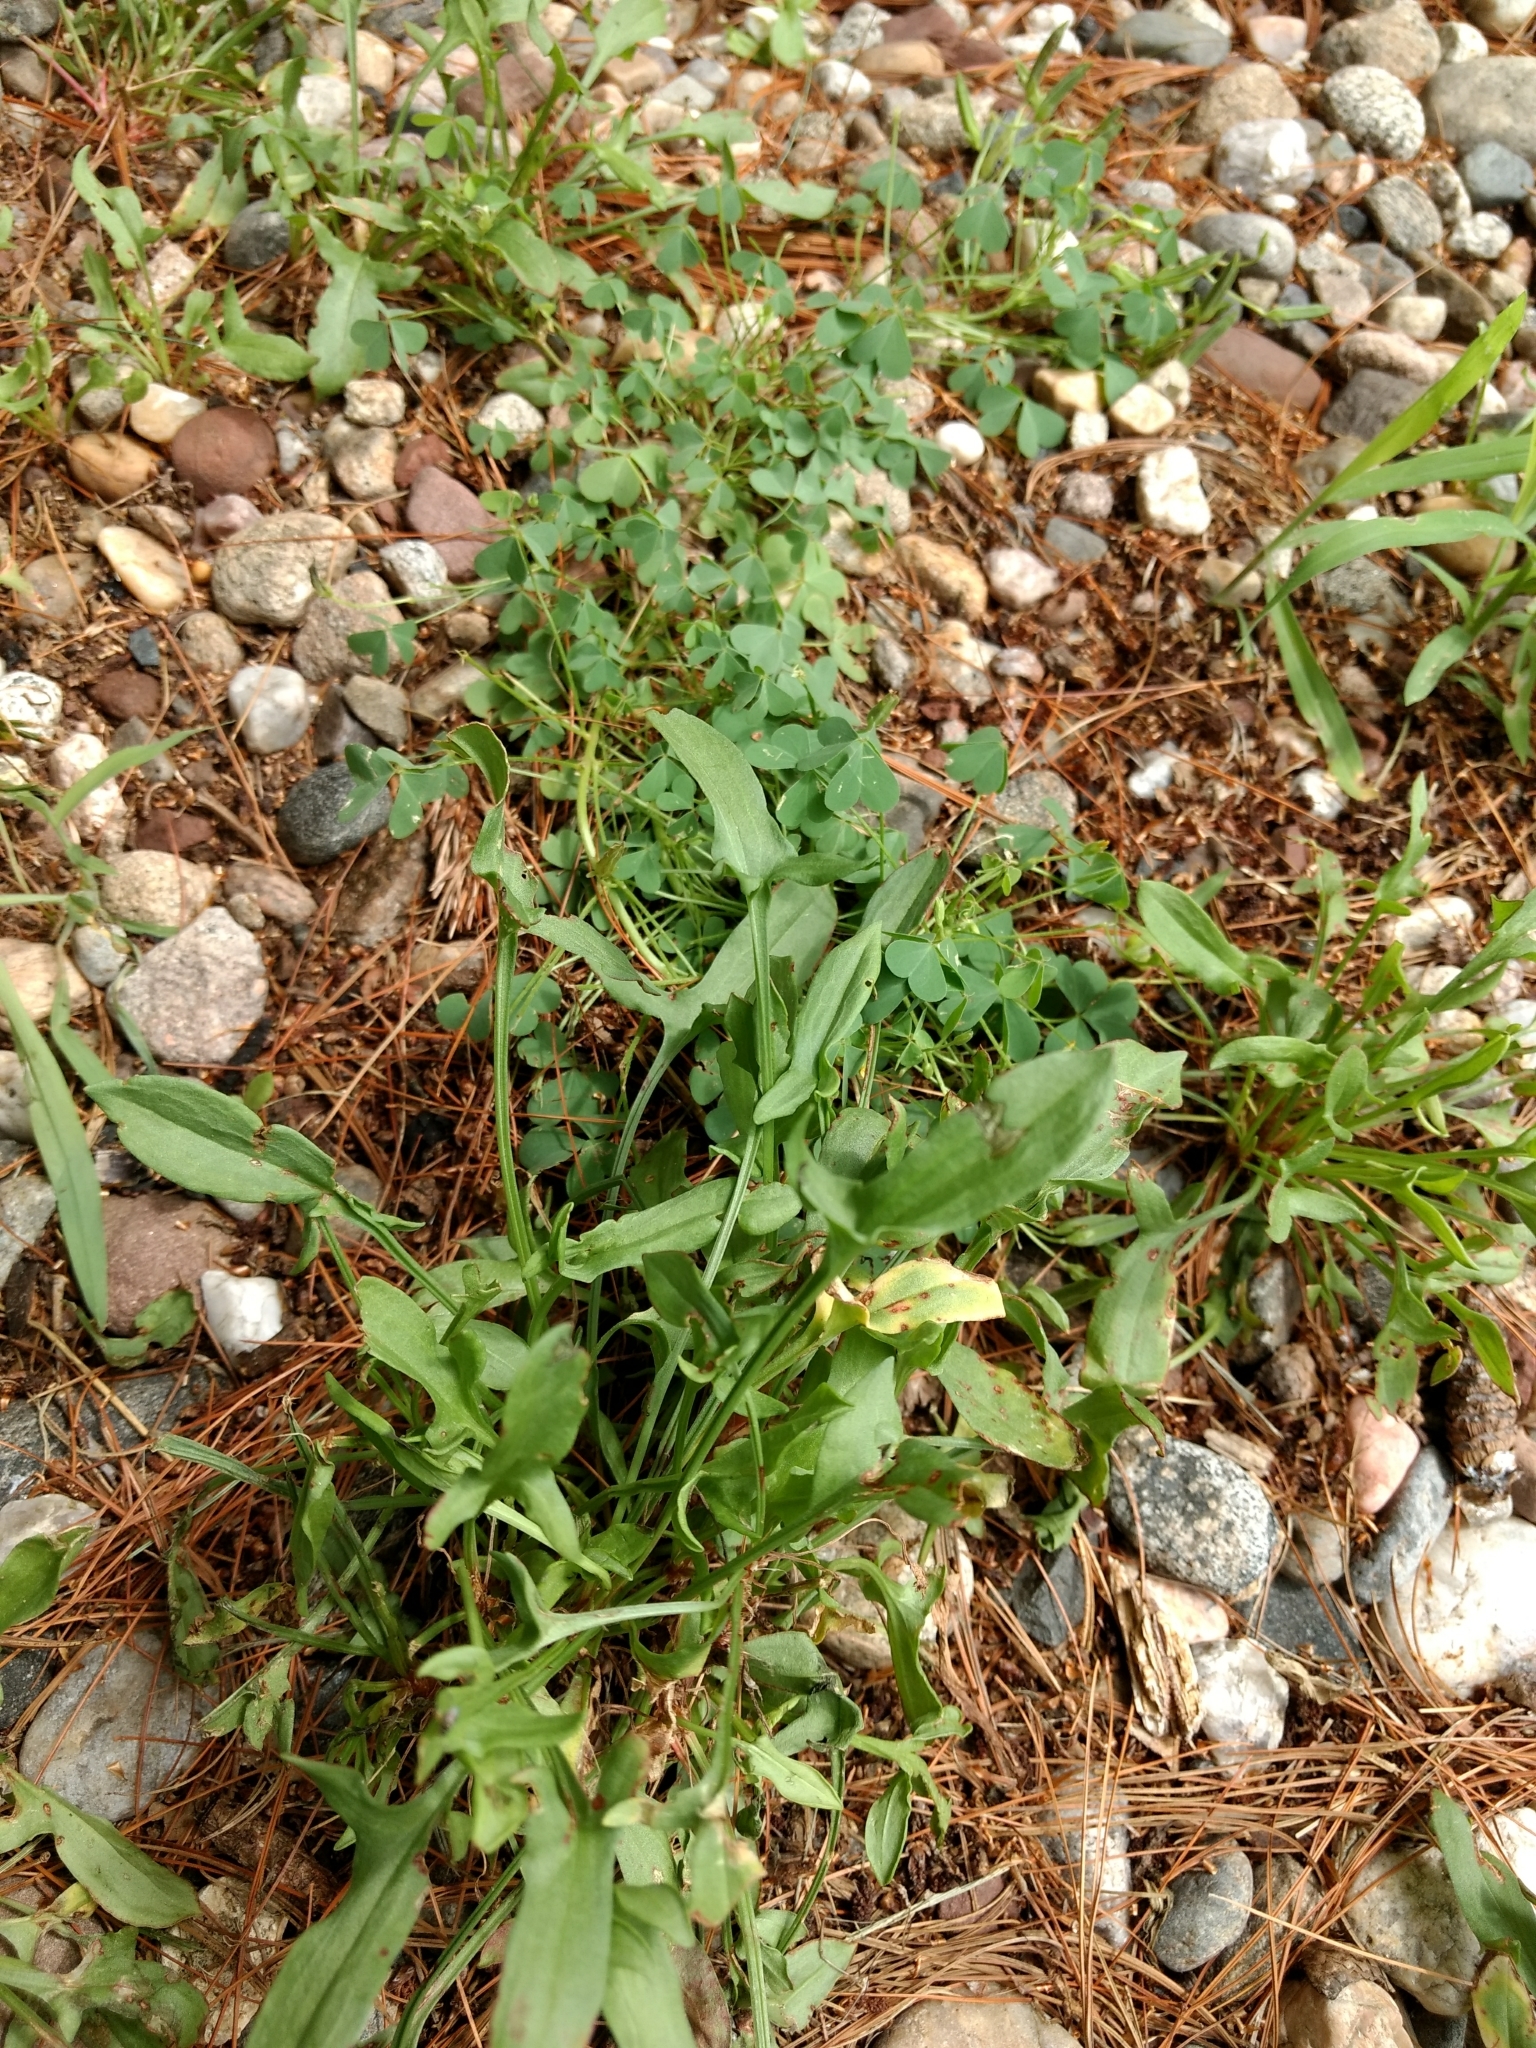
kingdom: Plantae
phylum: Tracheophyta
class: Magnoliopsida
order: Caryophyllales
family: Polygonaceae
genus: Rumex
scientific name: Rumex acetosella
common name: Common sheep sorrel
